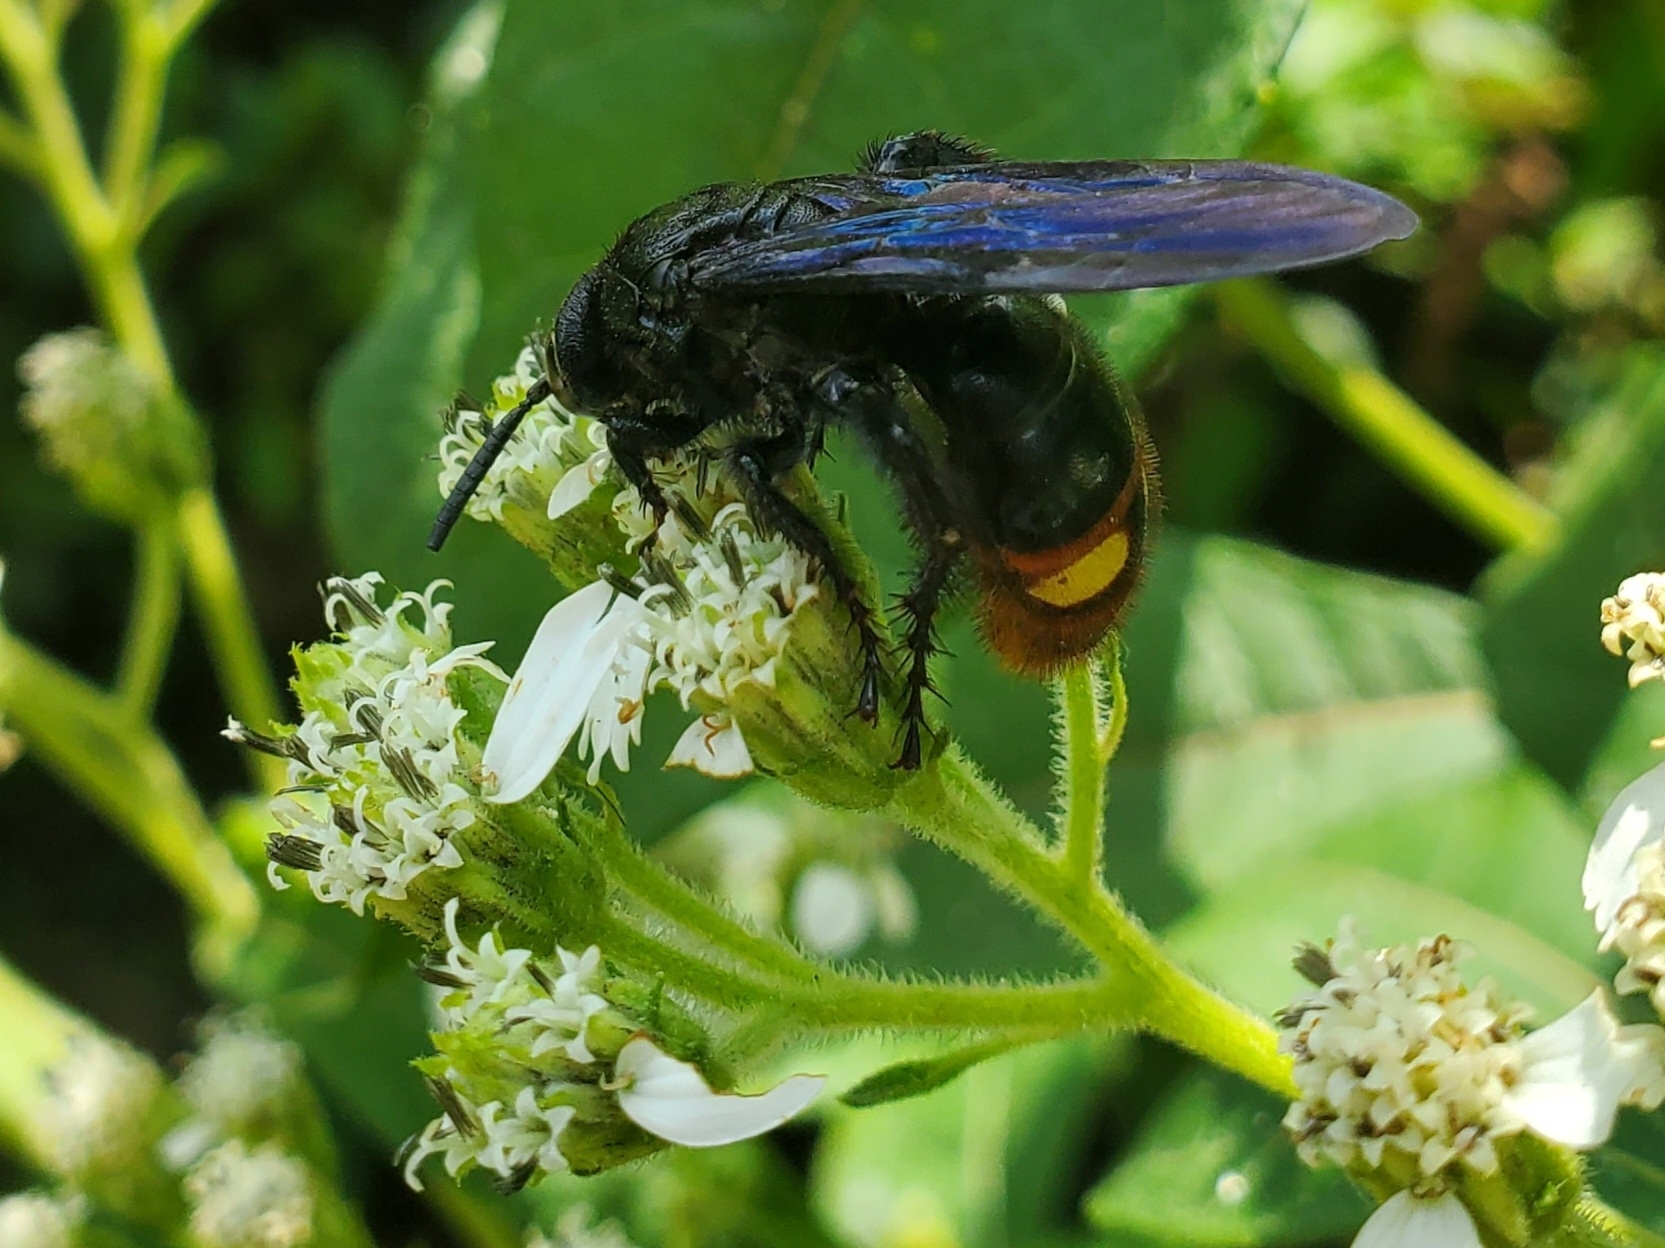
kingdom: Animalia
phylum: Arthropoda
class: Insecta
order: Hymenoptera
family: Scoliidae
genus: Scolia
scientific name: Scolia dubia
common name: Blue-winged scoliid wasp
